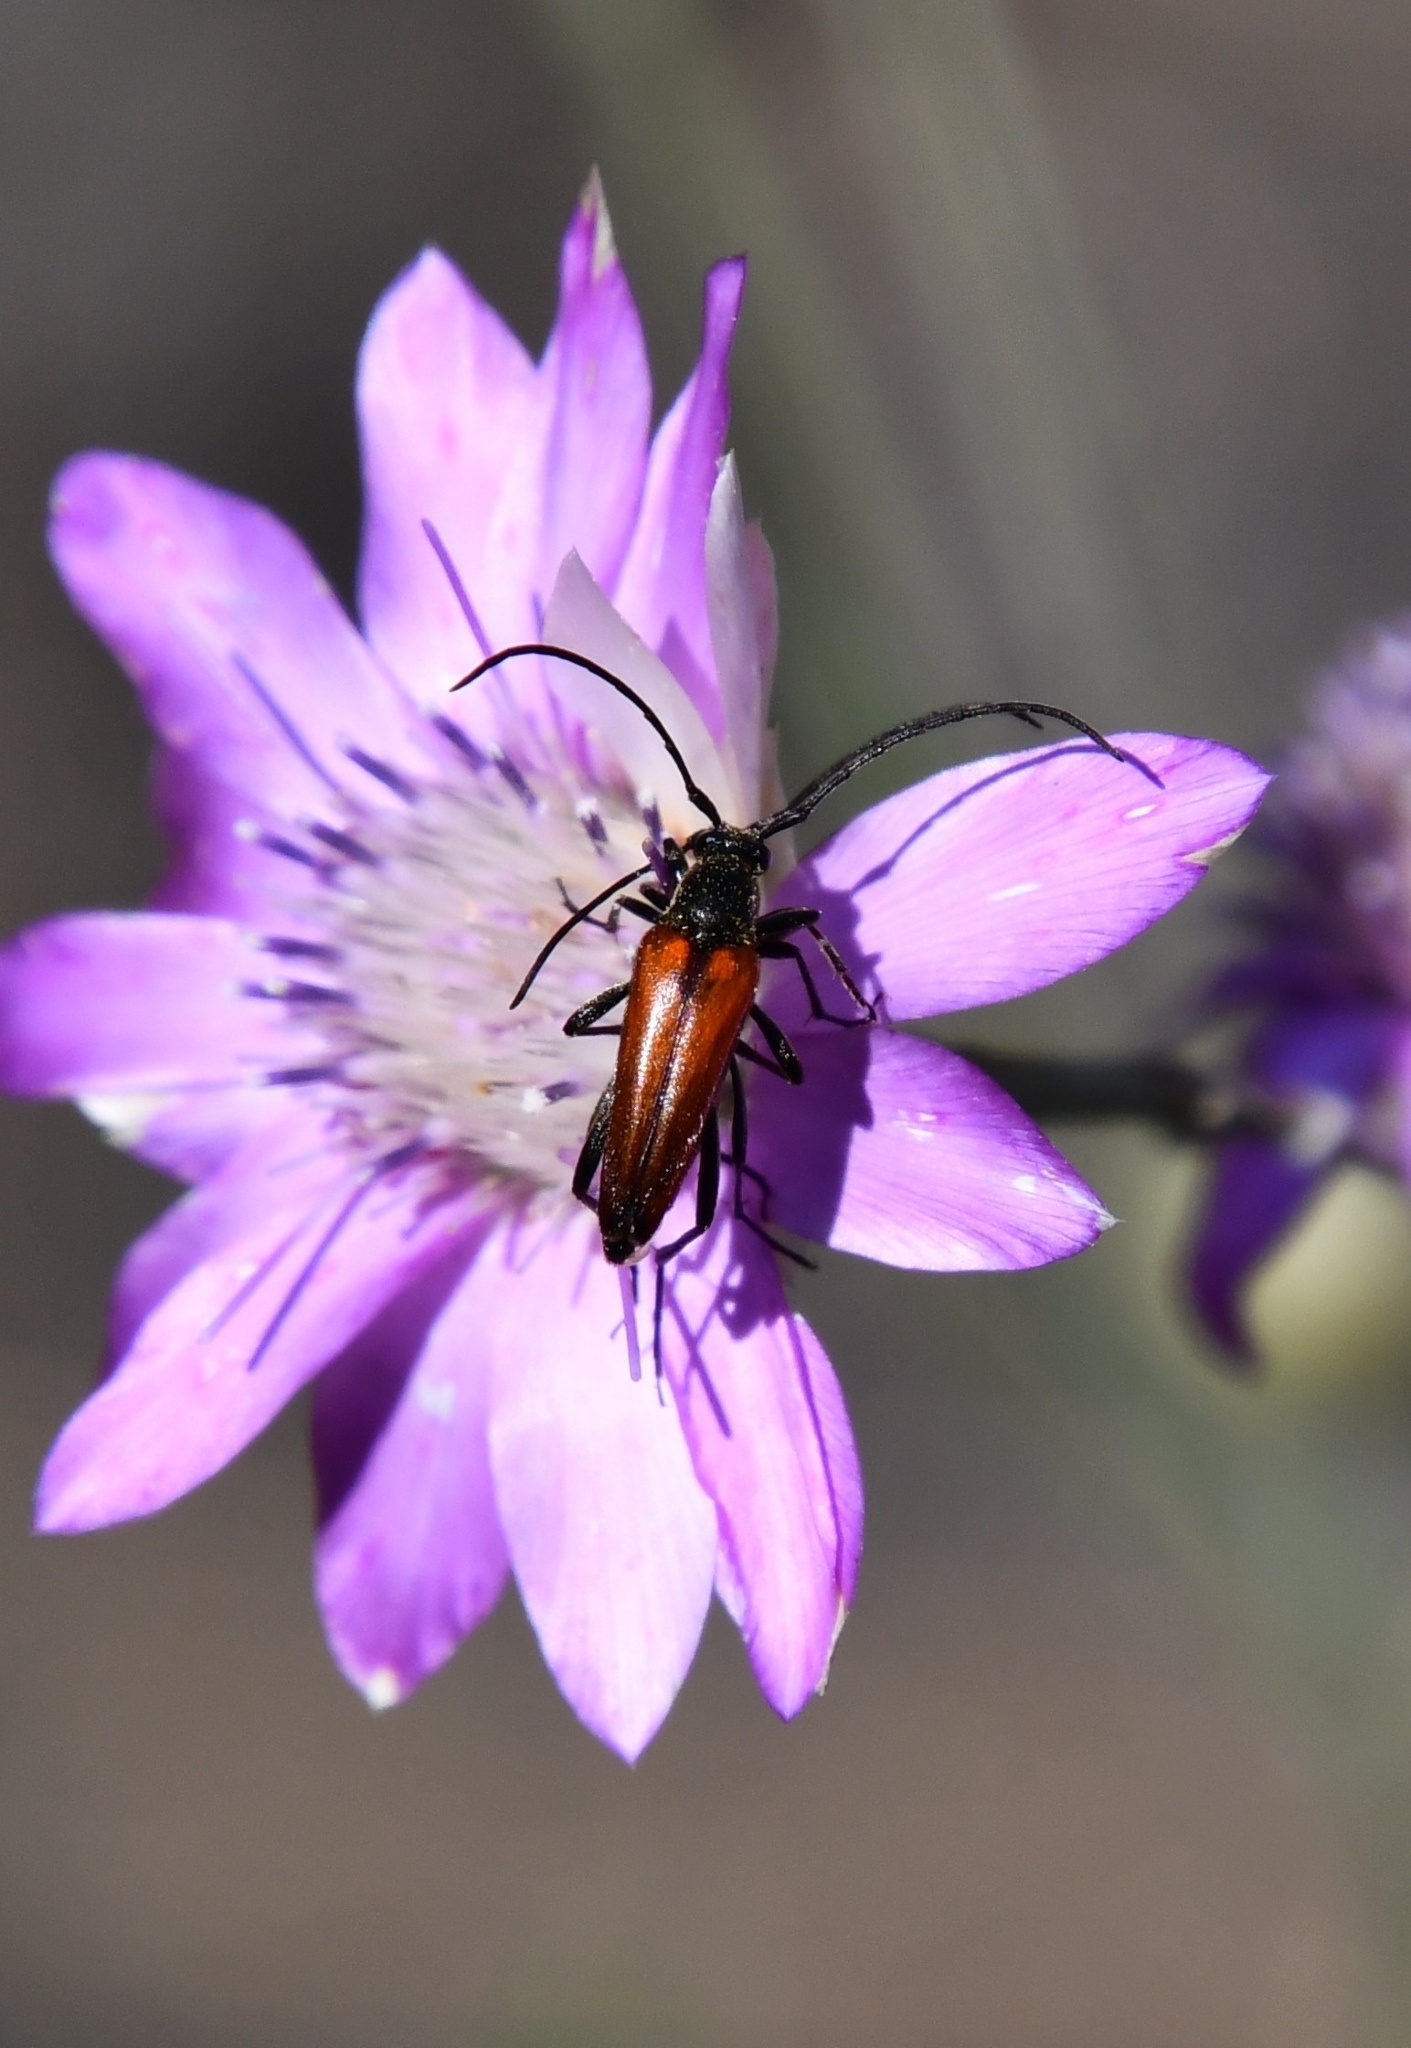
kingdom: Animalia
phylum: Arthropoda
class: Insecta
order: Coleoptera
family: Cerambycidae
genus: Stenurella
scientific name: Stenurella bifasciata
